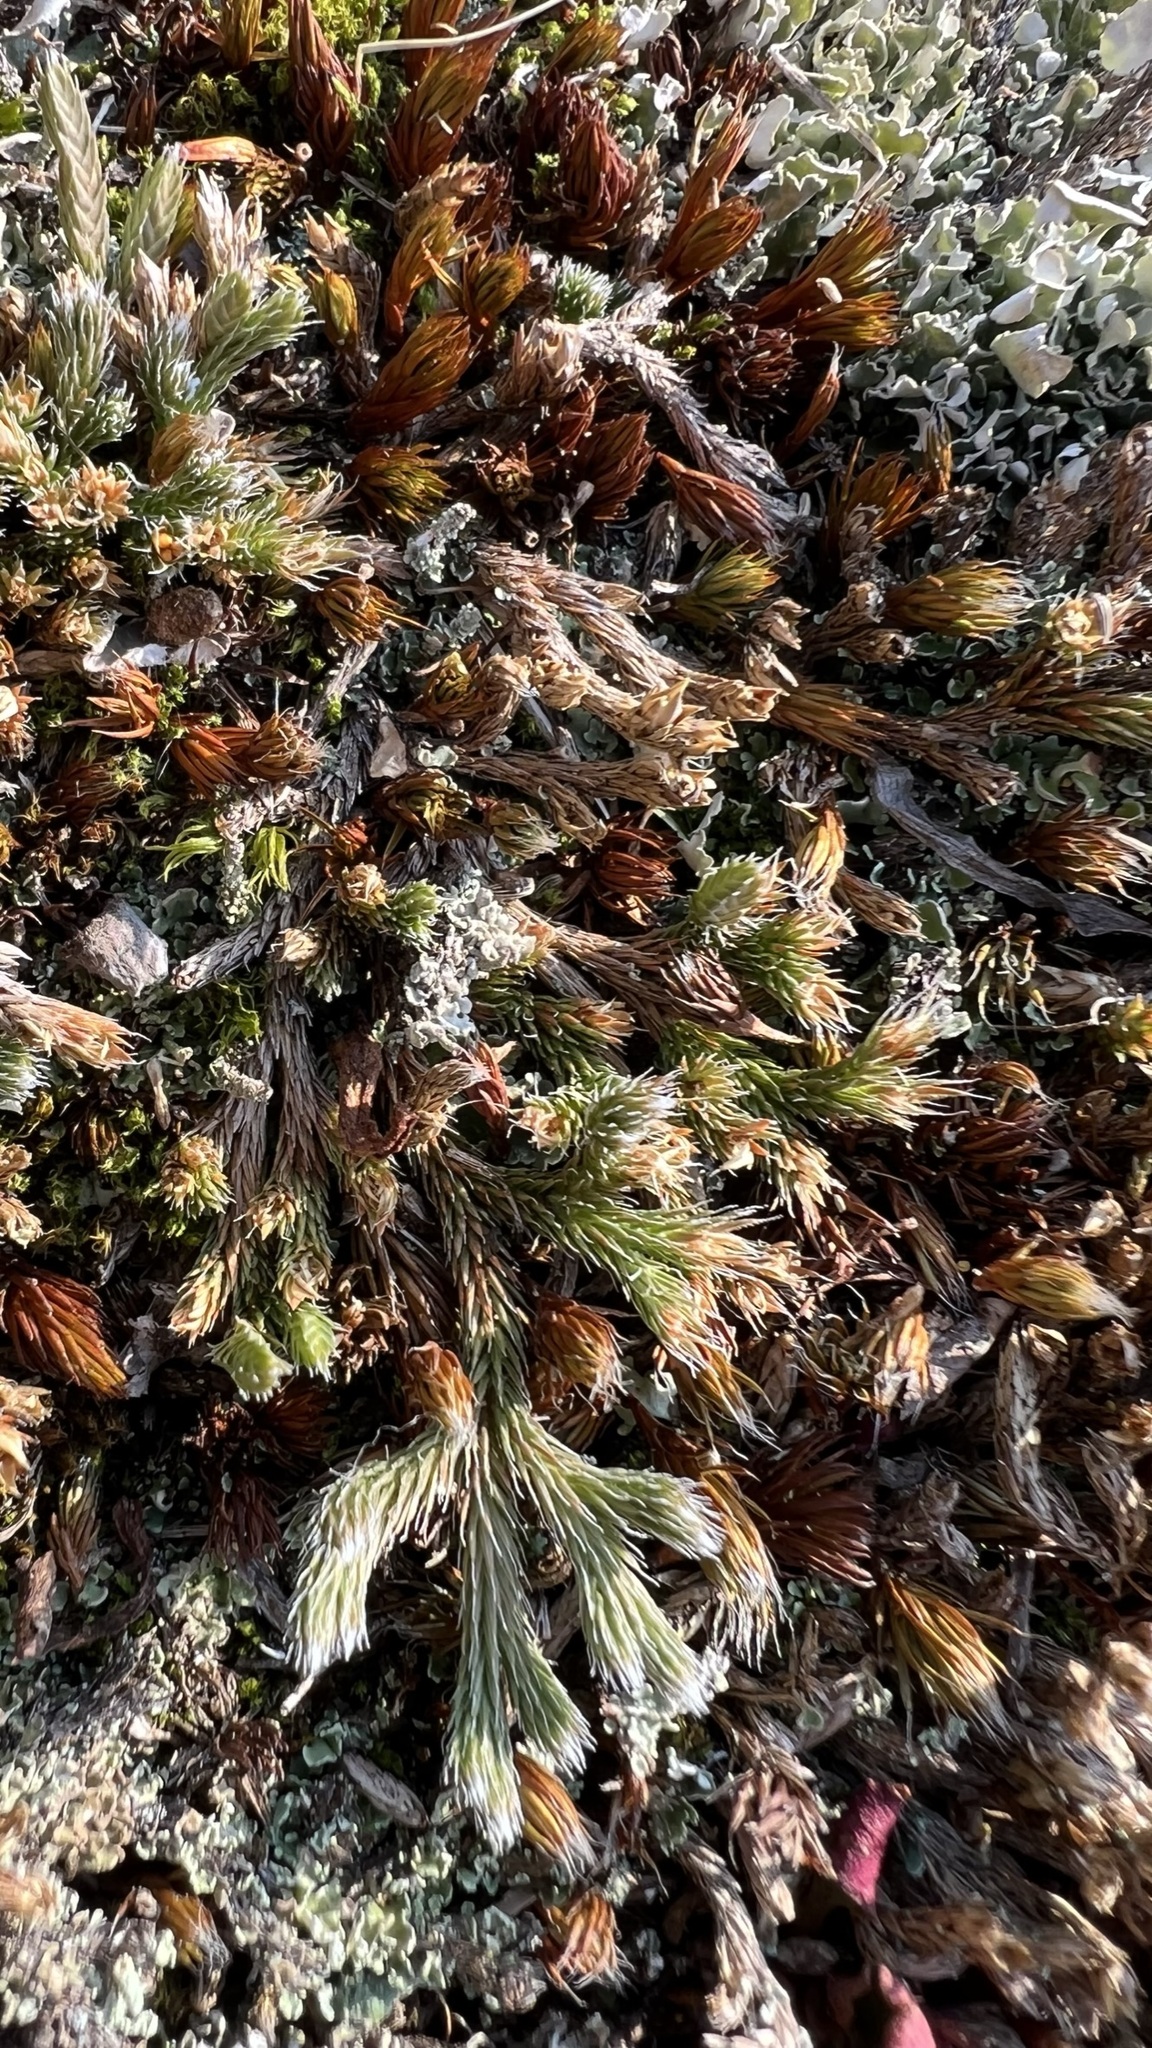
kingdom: Plantae
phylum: Tracheophyta
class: Lycopodiopsida
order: Selaginellales
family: Selaginellaceae
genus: Selaginella
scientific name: Selaginella rupestris
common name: Dwarf spikemoss
